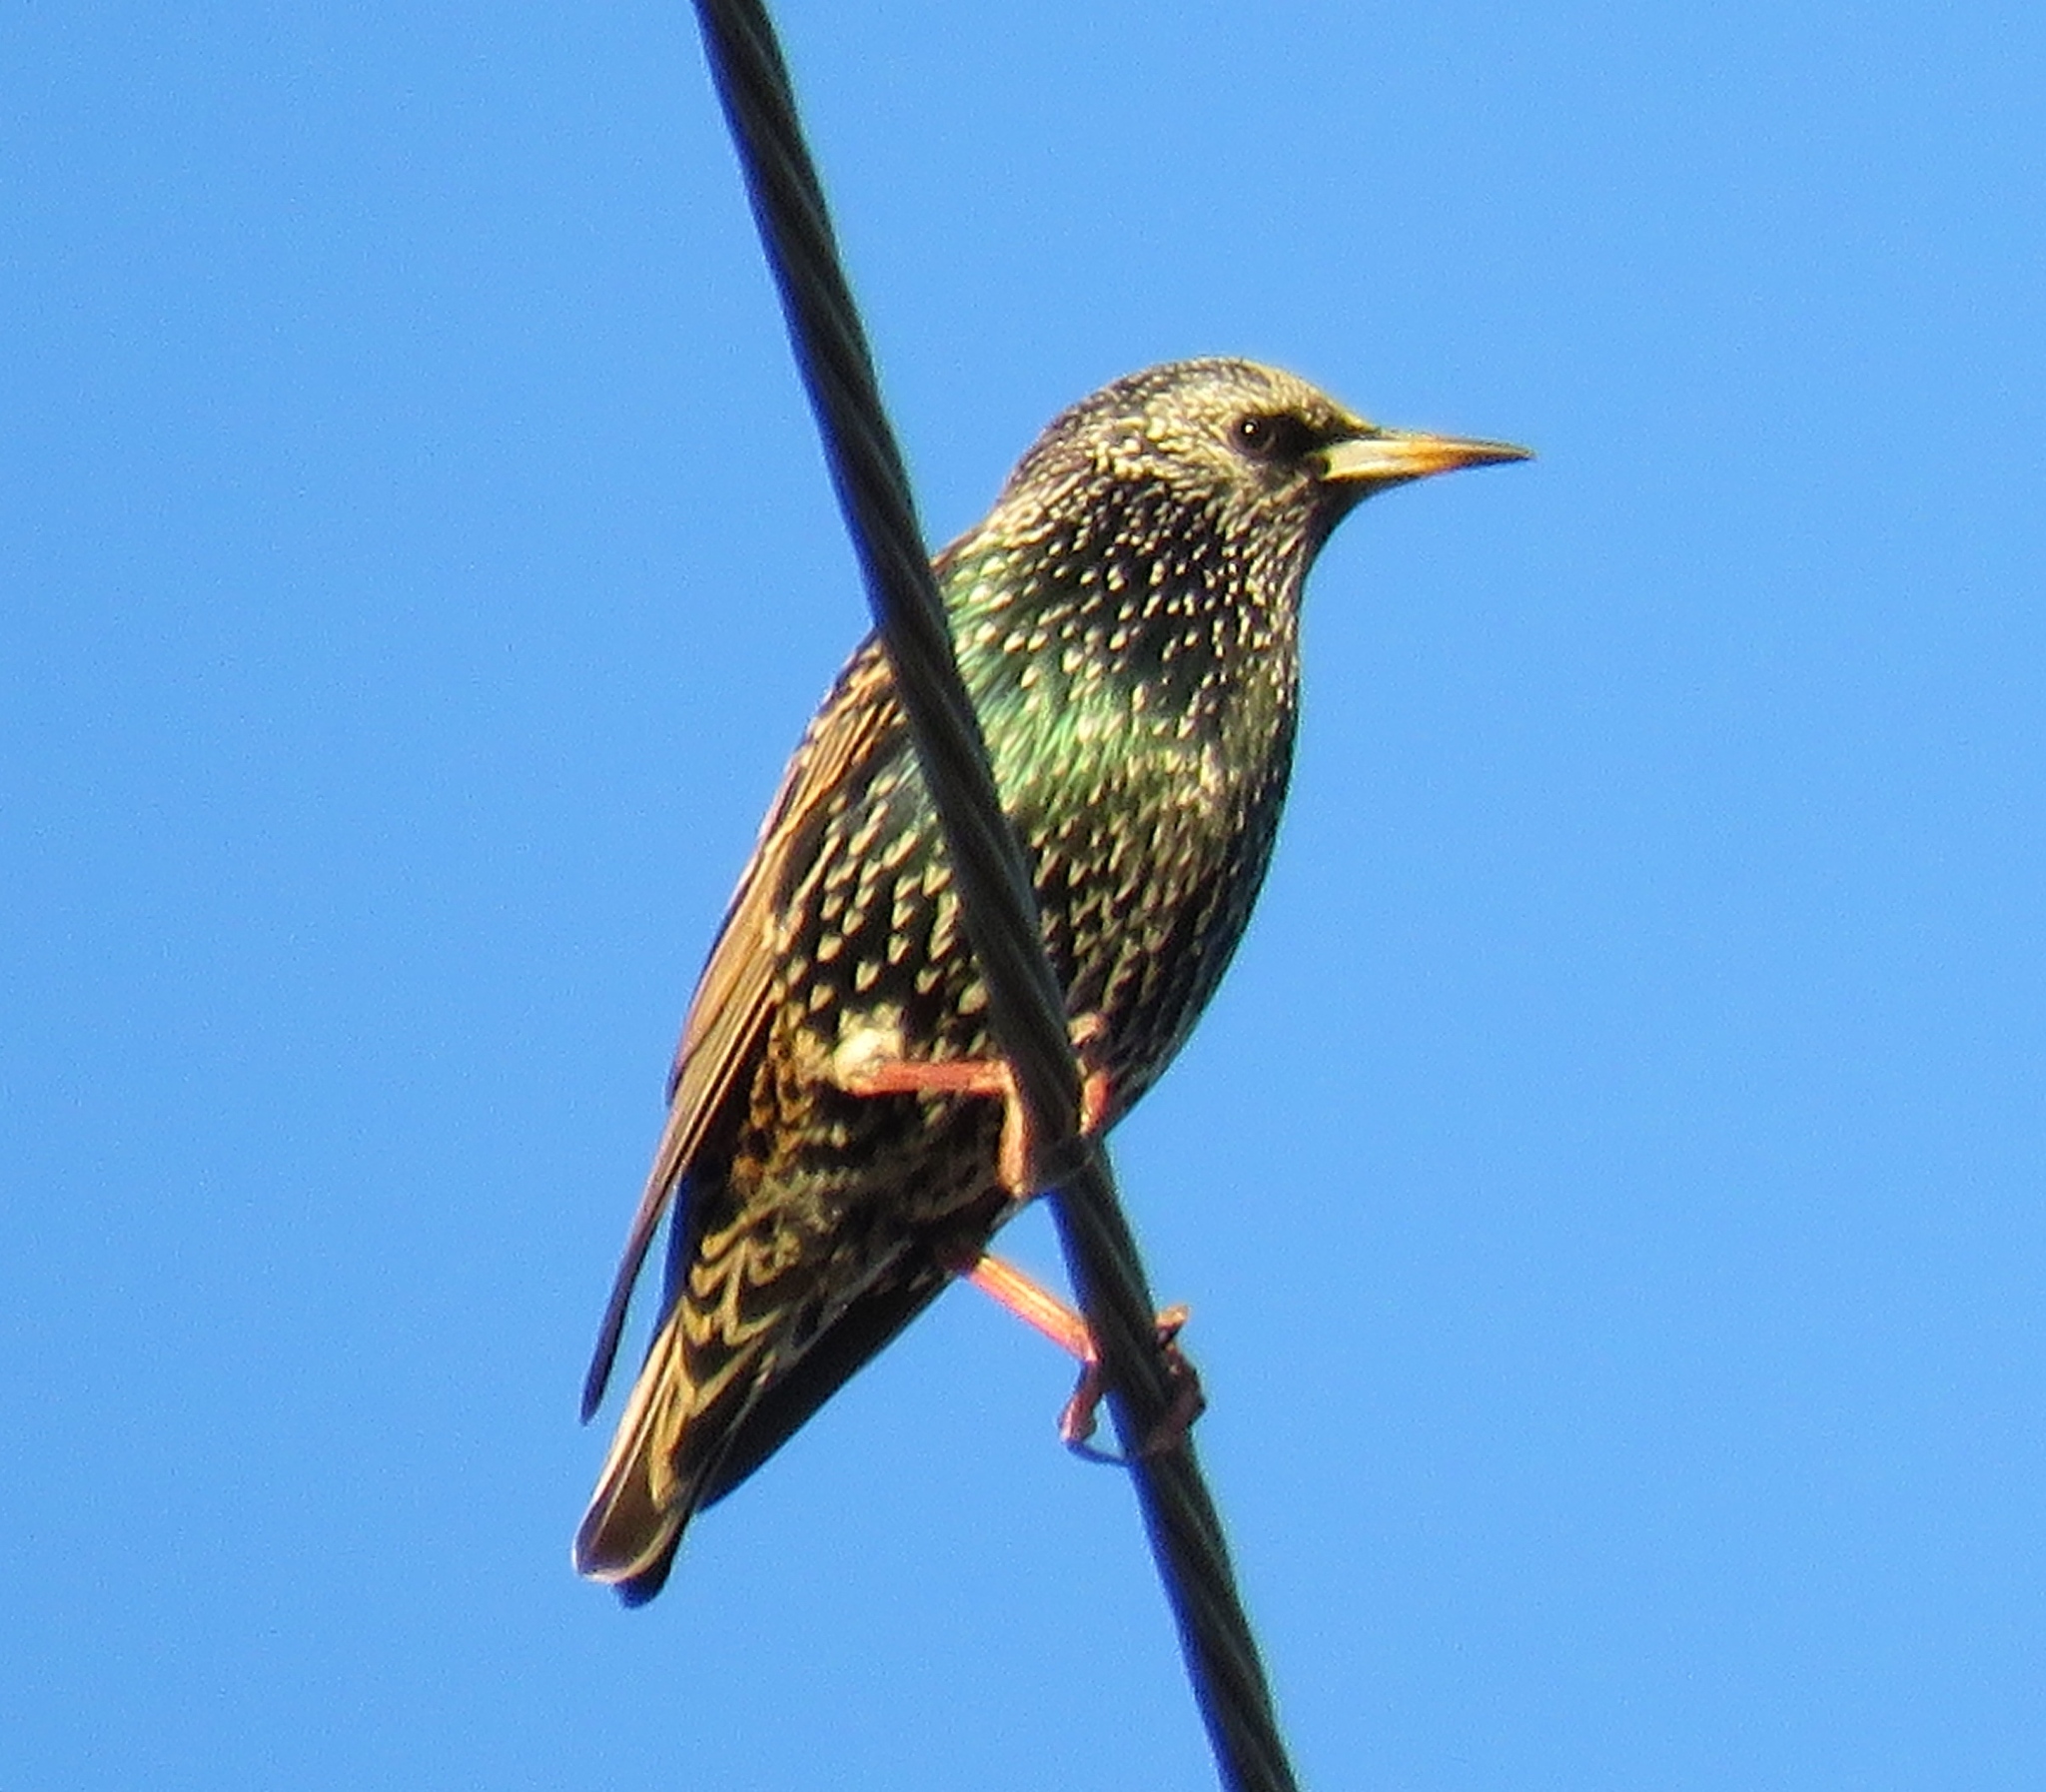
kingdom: Animalia
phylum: Chordata
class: Aves
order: Passeriformes
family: Sturnidae
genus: Sturnus
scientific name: Sturnus vulgaris
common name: Common starling
